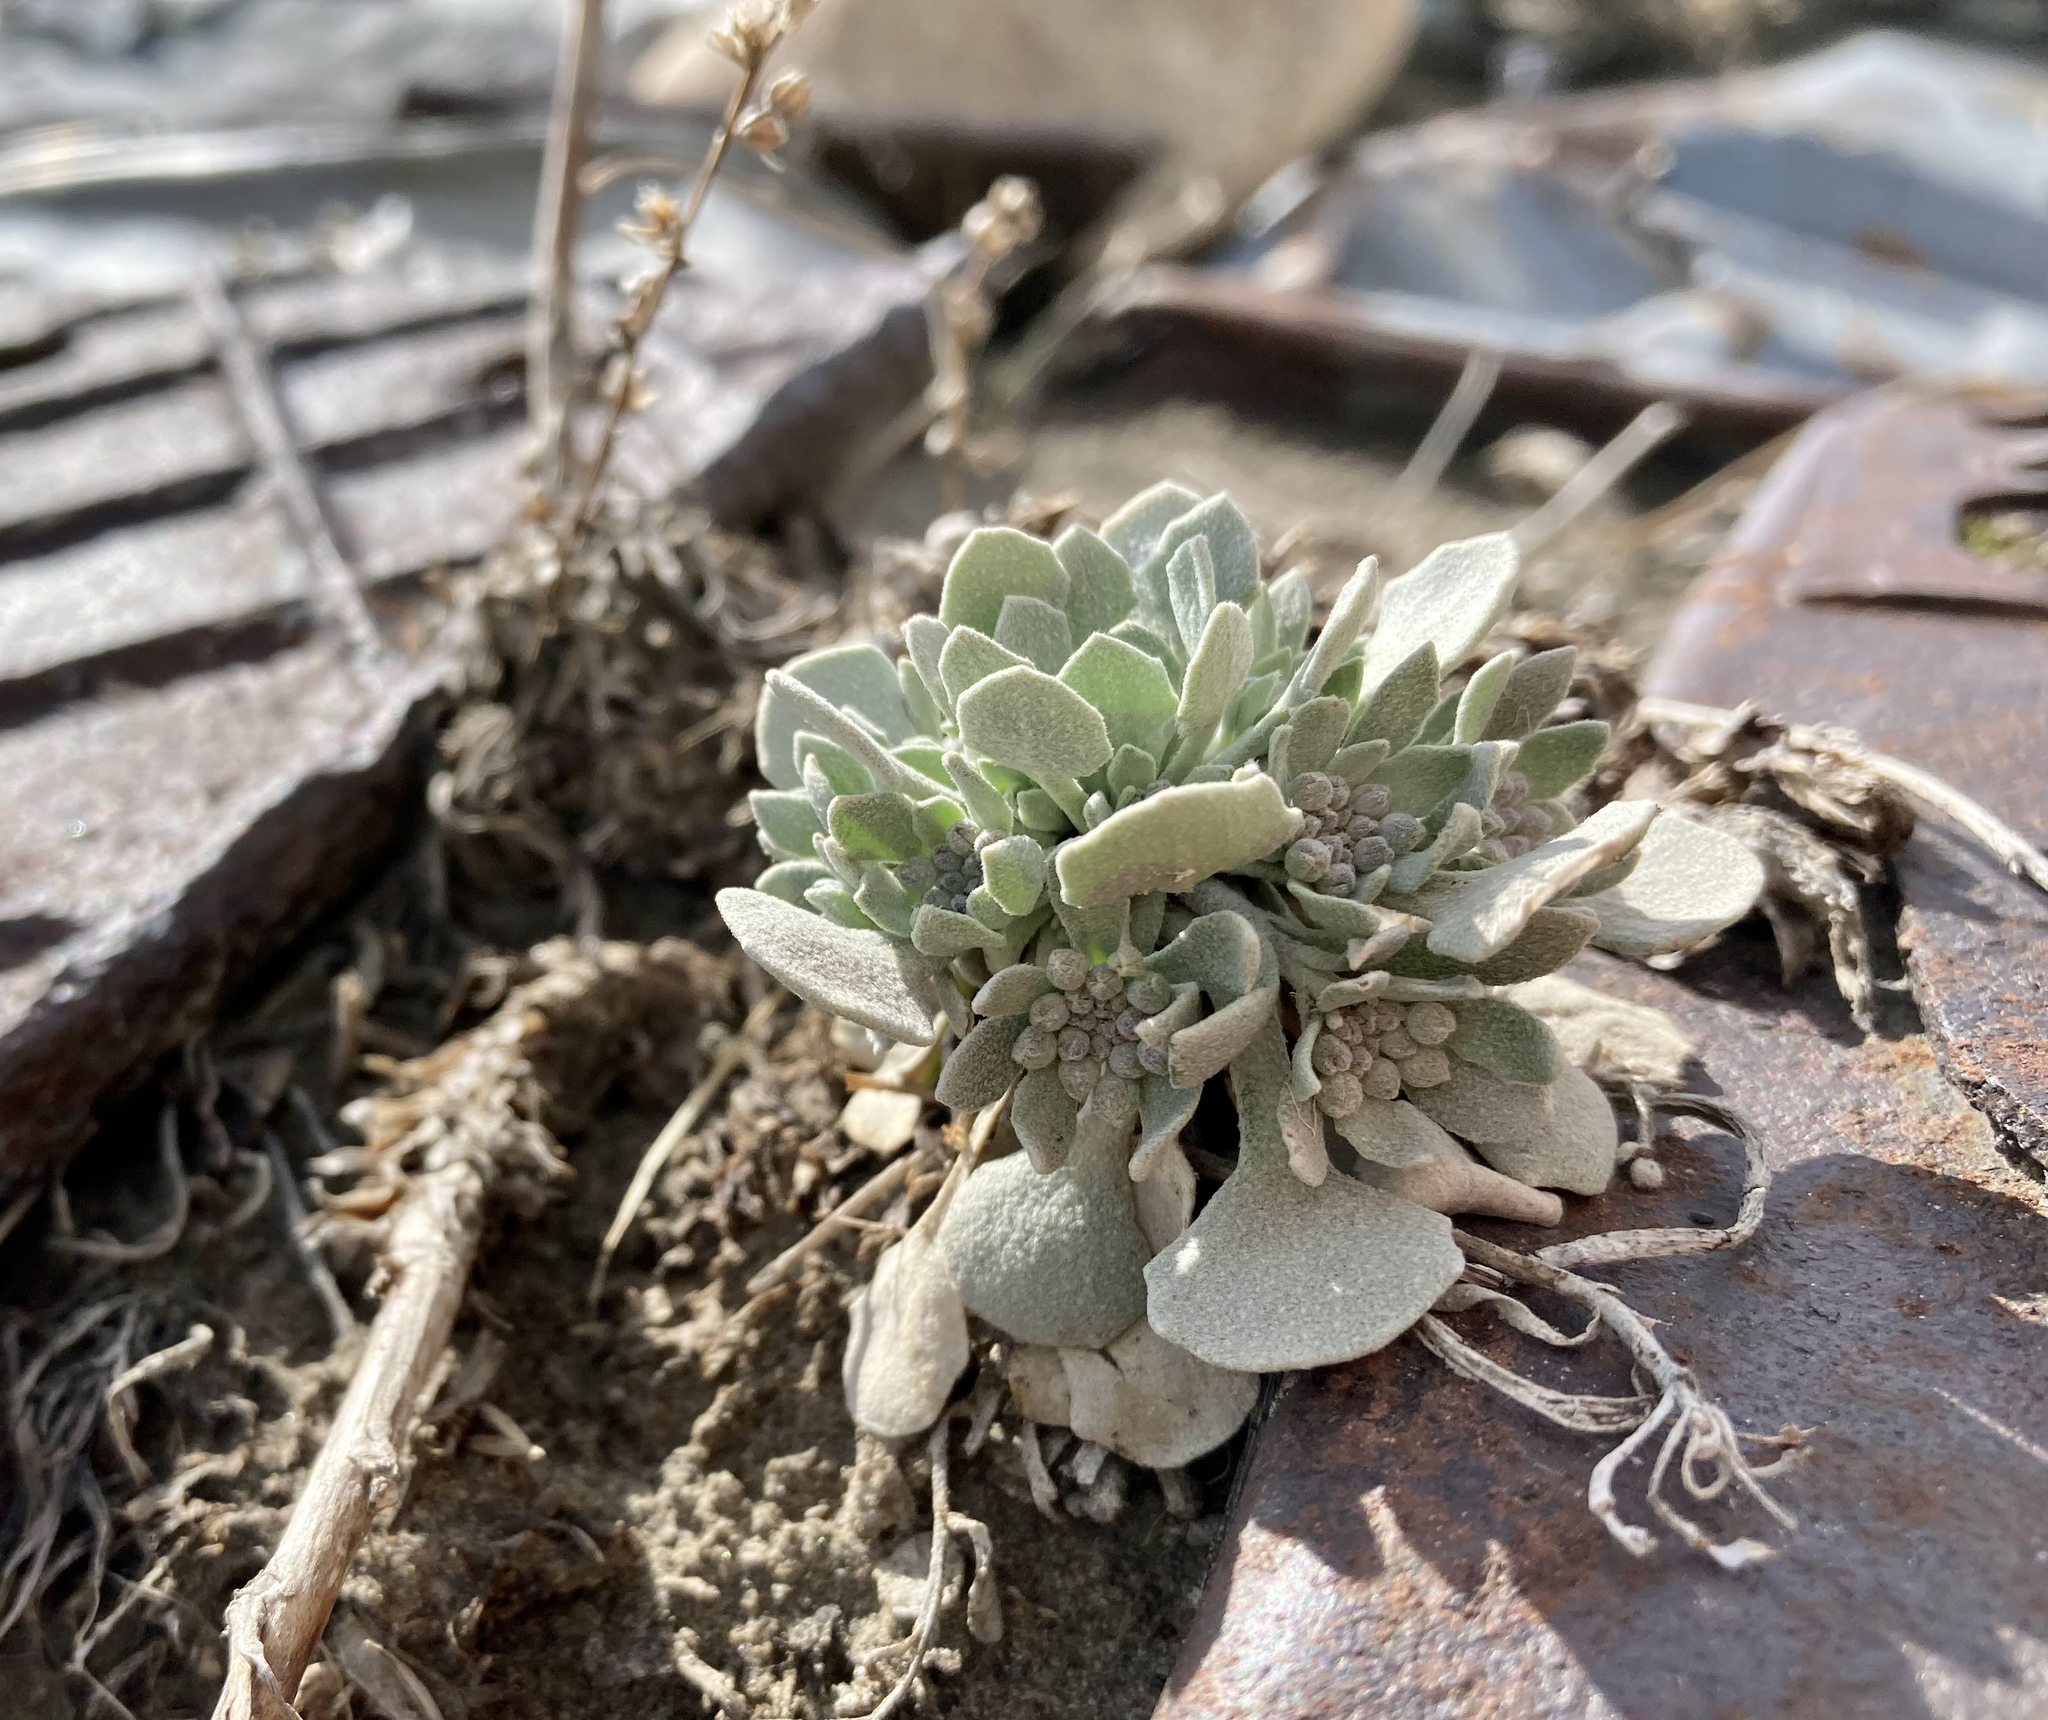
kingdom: Plantae
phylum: Tracheophyta
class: Magnoliopsida
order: Brassicales
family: Brassicaceae
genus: Physaria
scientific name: Physaria didymocarpa
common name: Common twinpod
